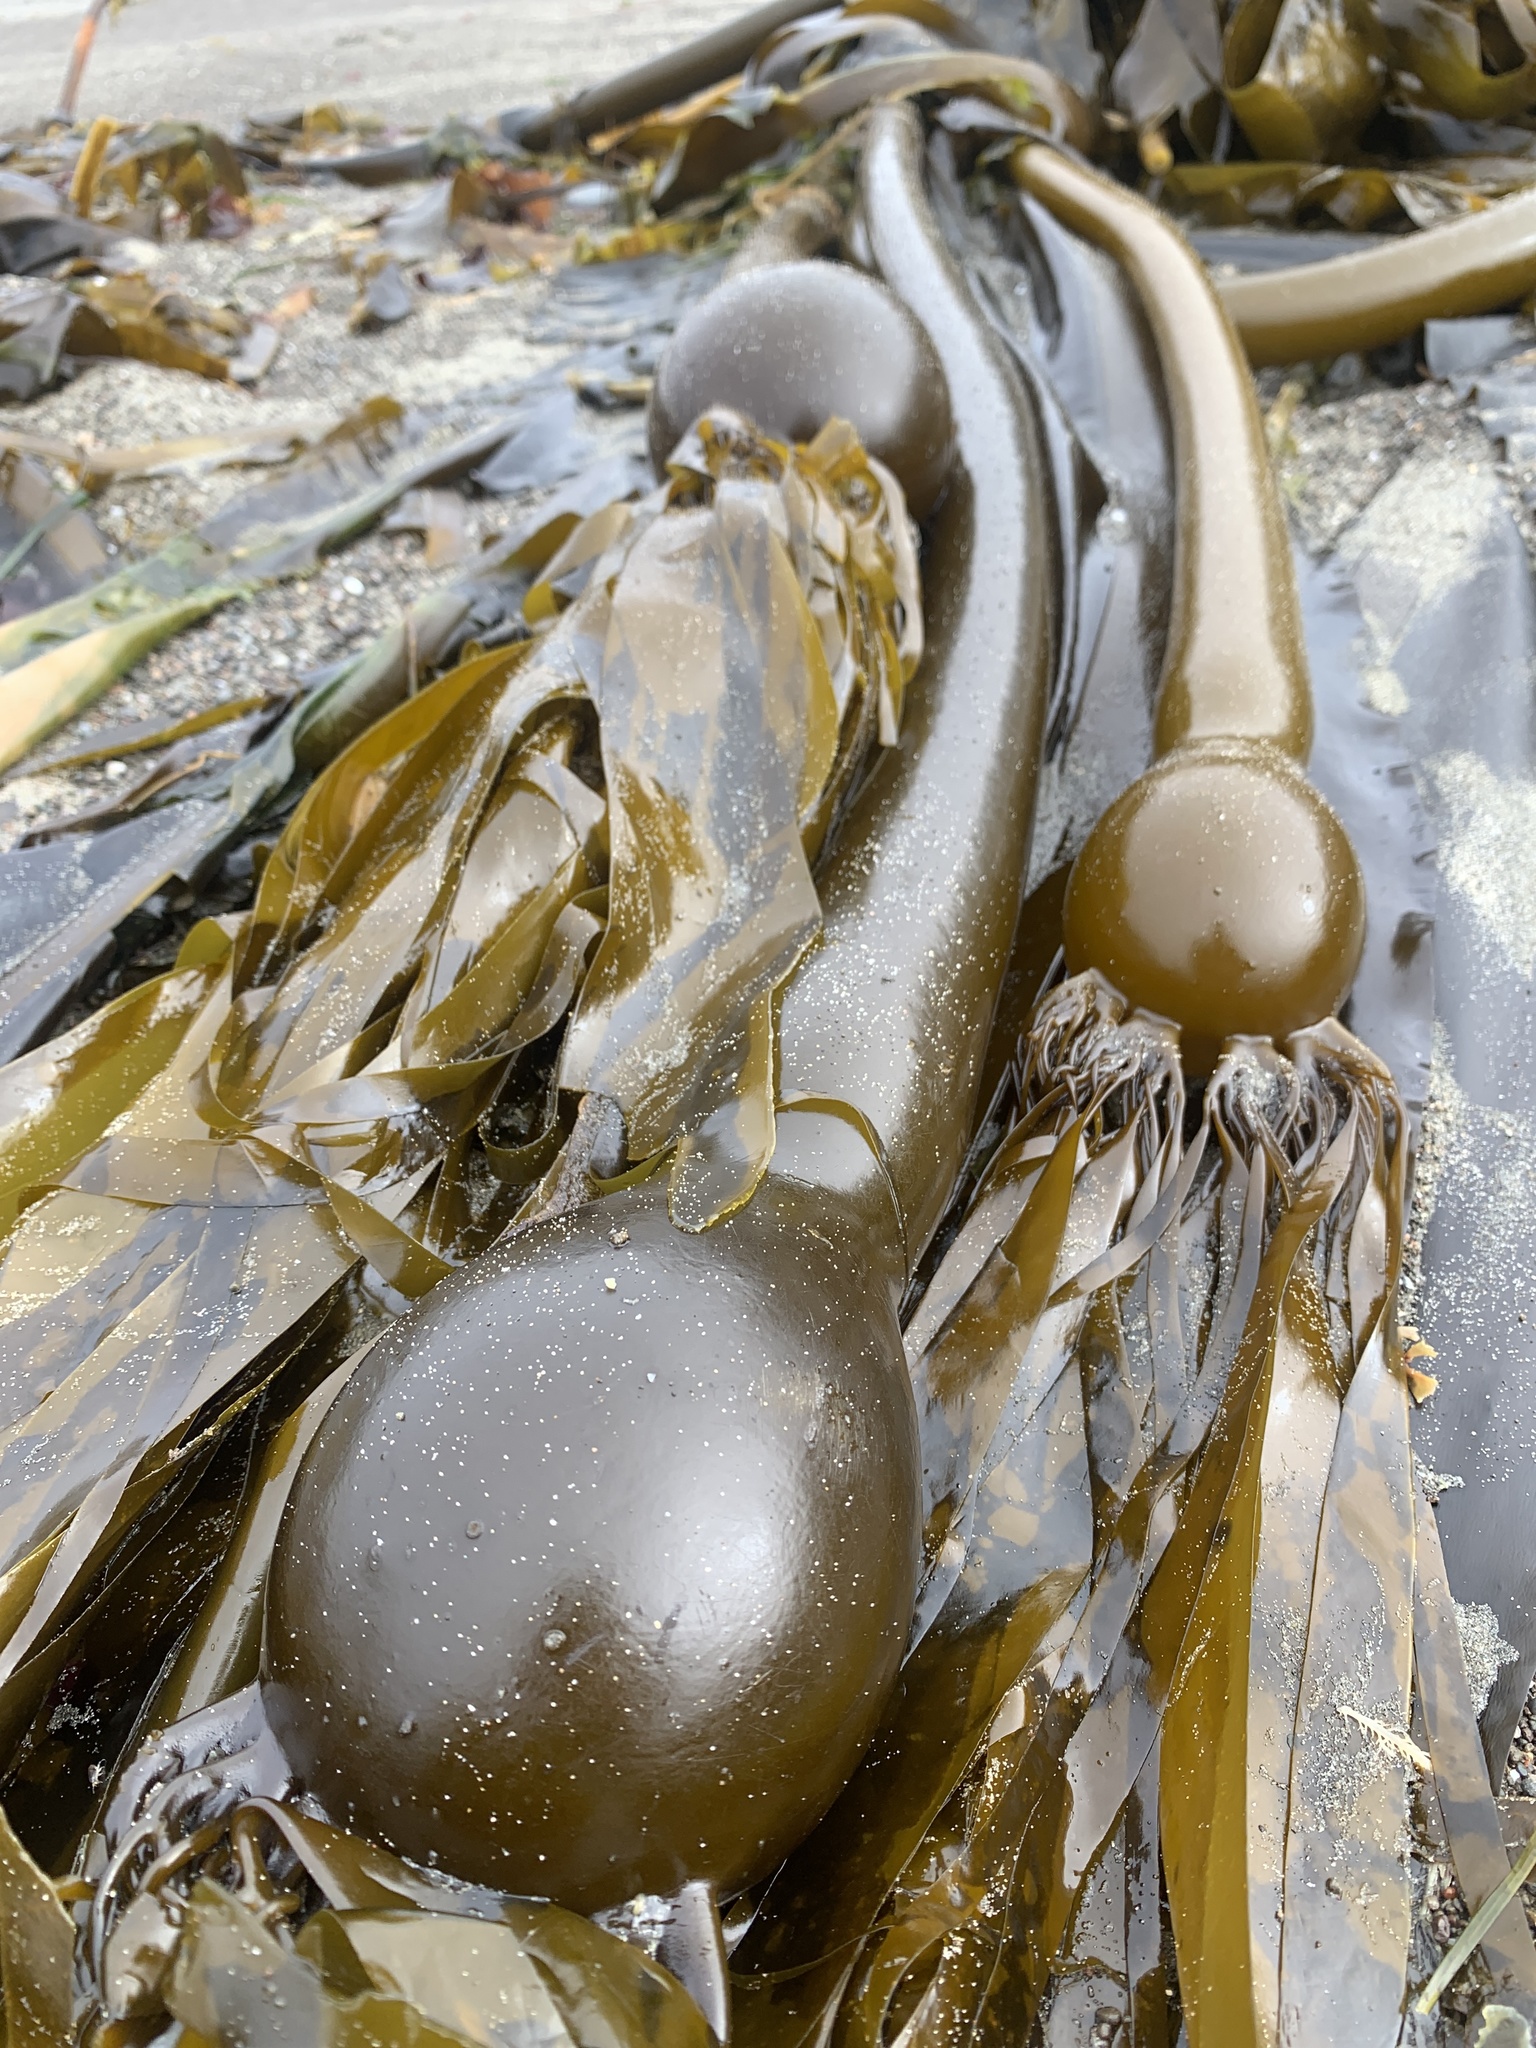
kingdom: Chromista
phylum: Ochrophyta
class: Phaeophyceae
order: Laminariales
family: Laminariaceae
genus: Nereocystis
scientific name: Nereocystis luetkeana
